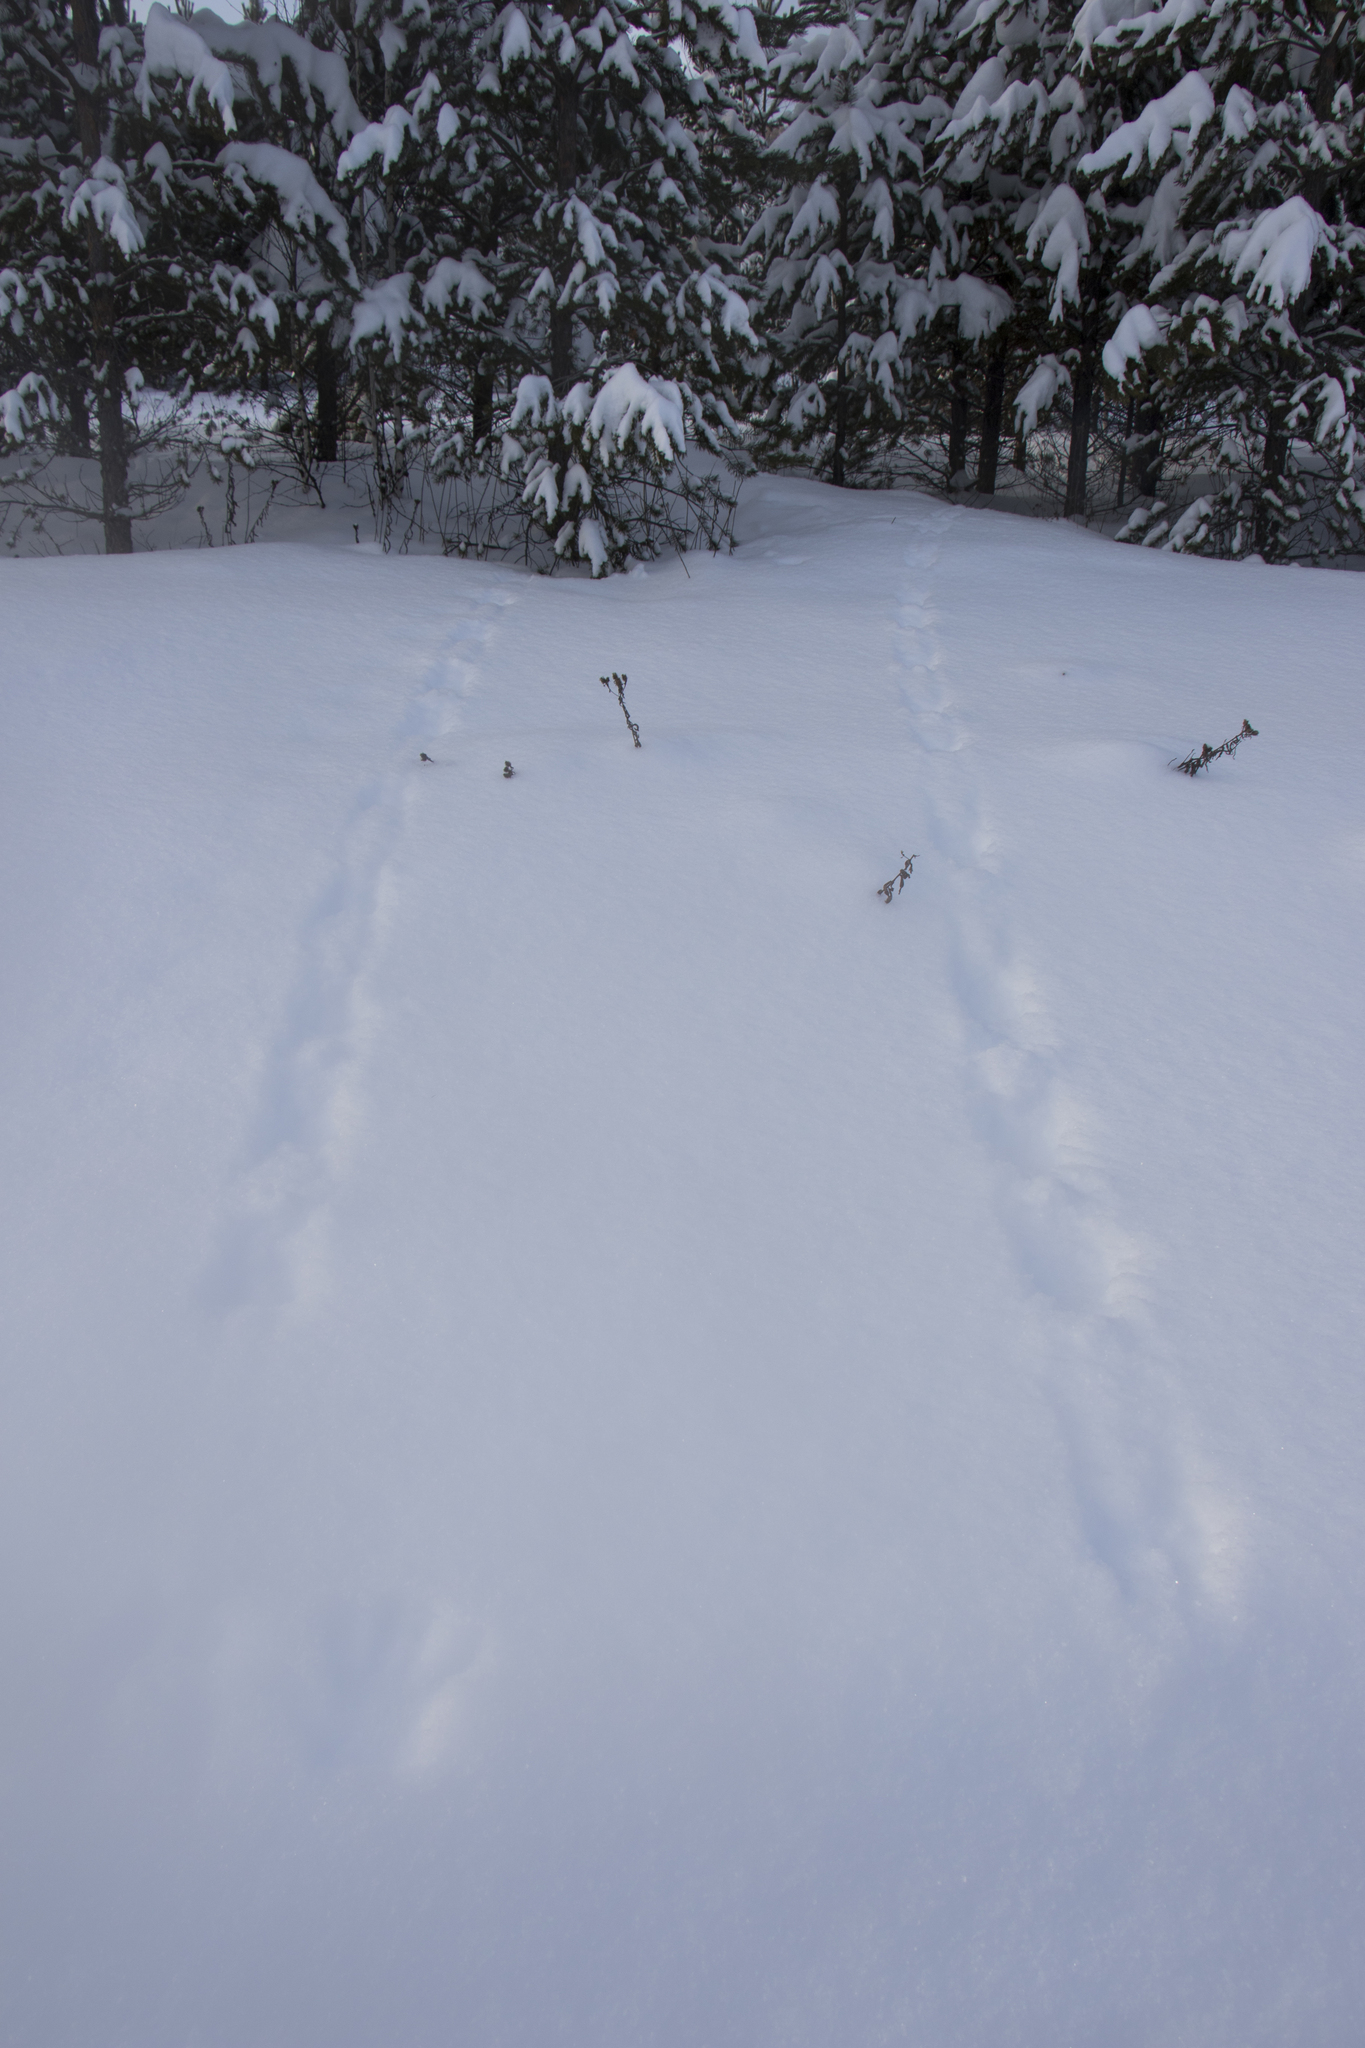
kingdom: Animalia
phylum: Chordata
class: Mammalia
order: Carnivora
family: Mustelidae
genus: Martes
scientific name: Martes martes
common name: European pine marten
